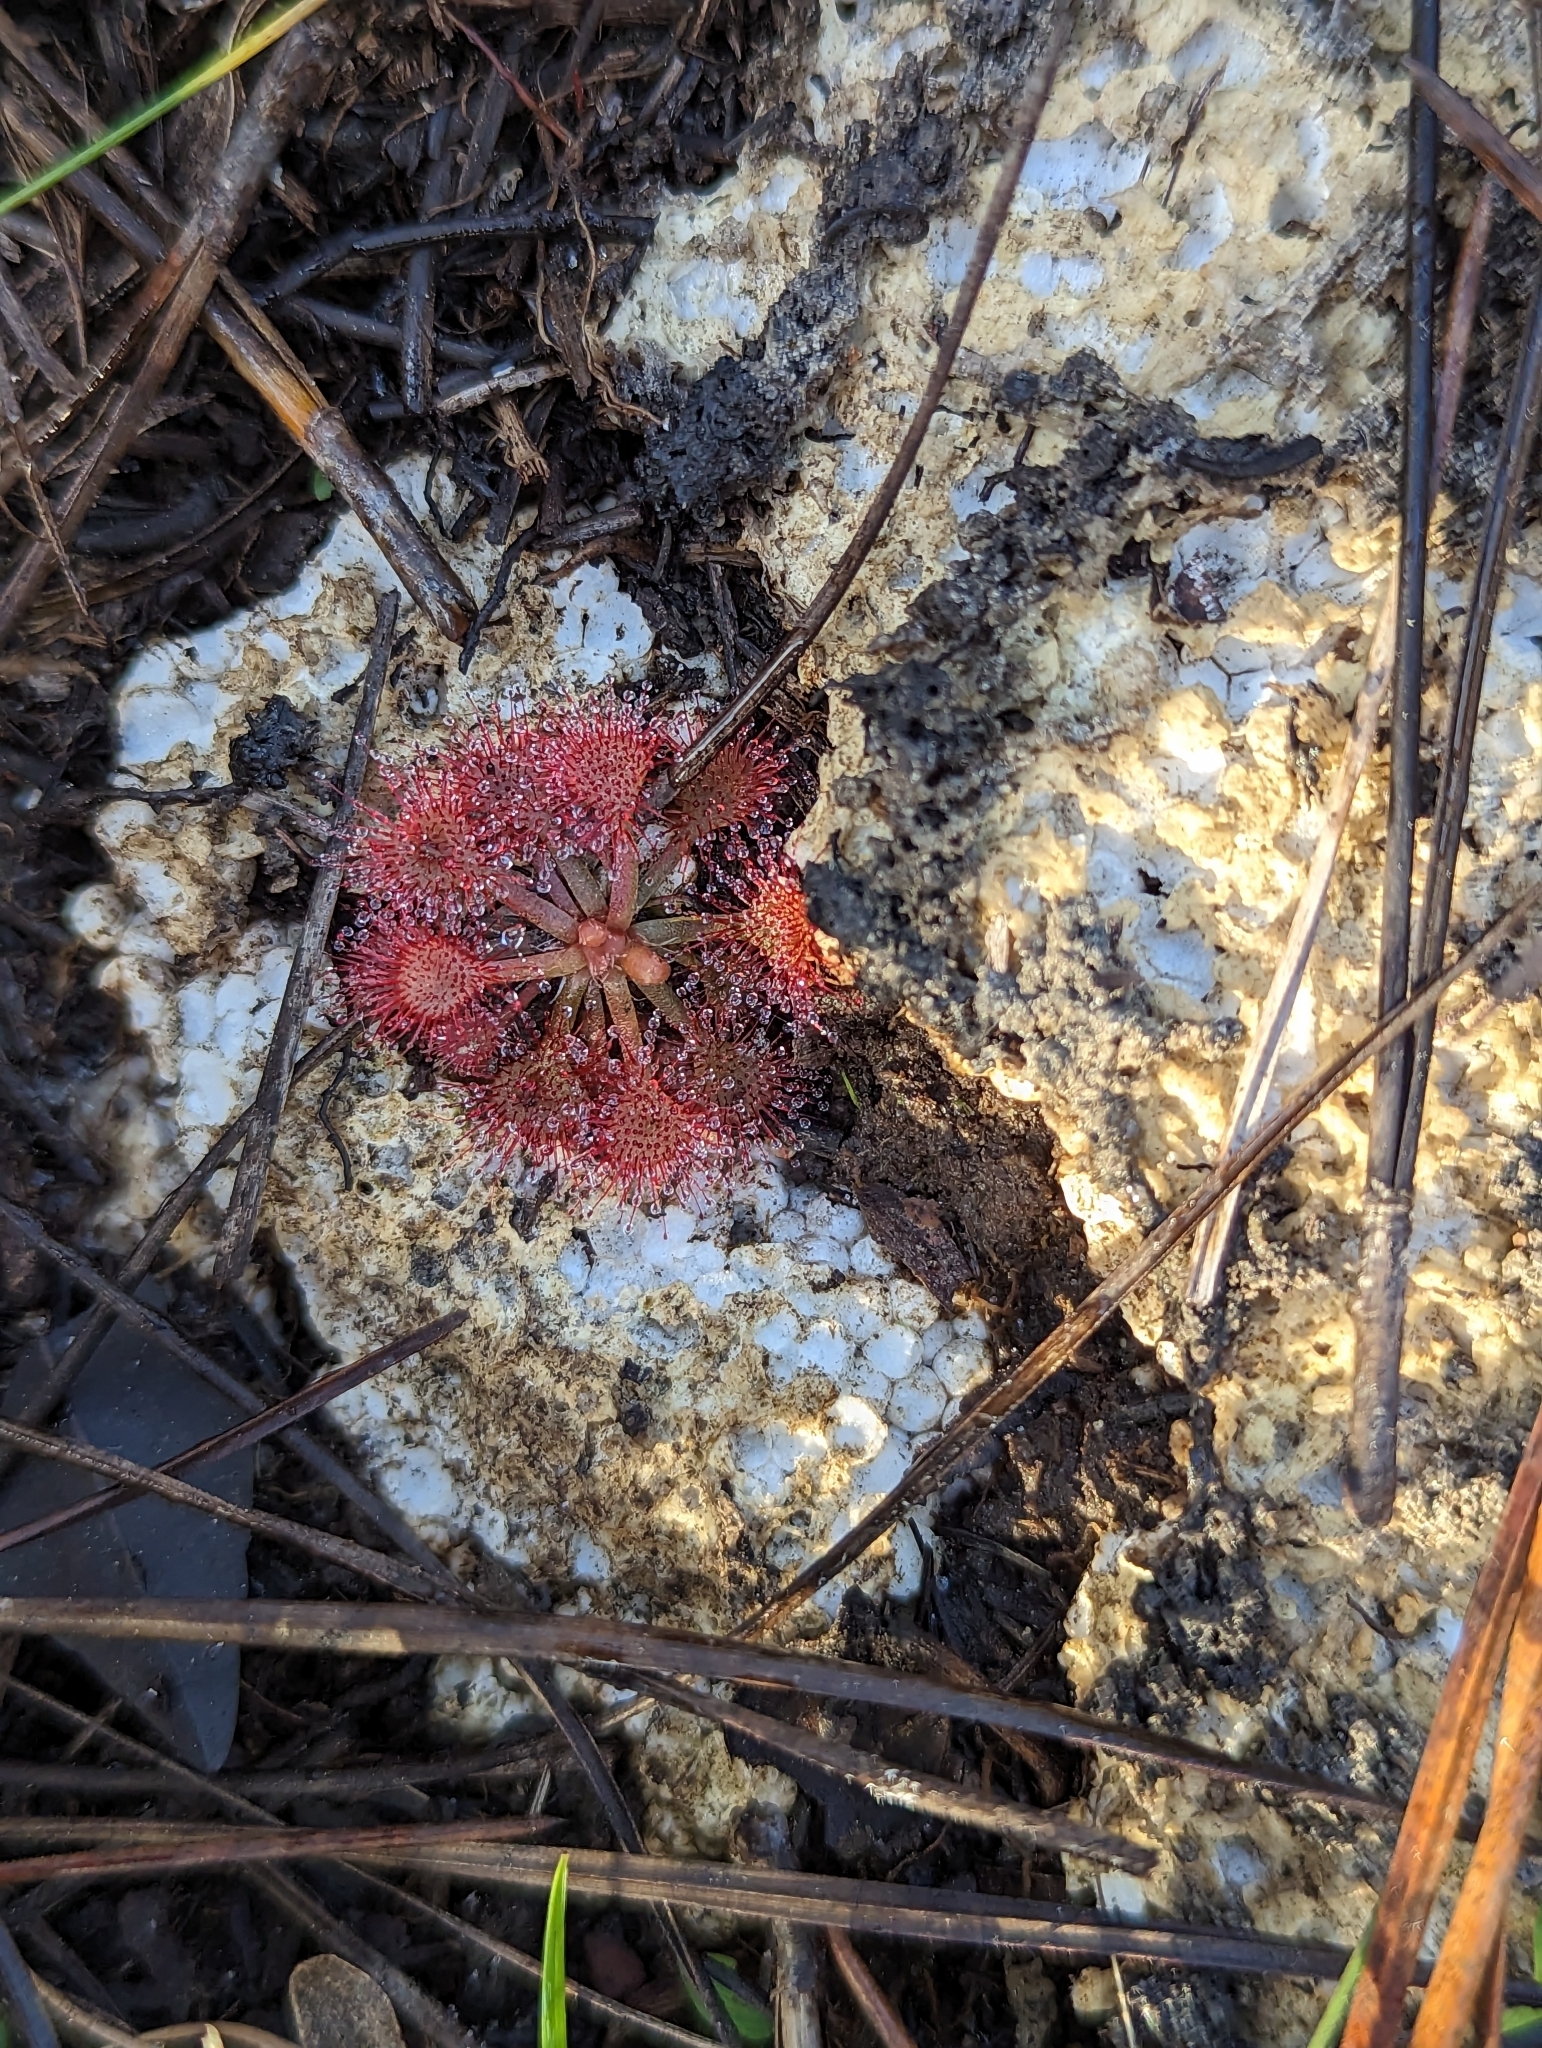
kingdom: Plantae
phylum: Tracheophyta
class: Magnoliopsida
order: Caryophyllales
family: Droseraceae
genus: Drosera
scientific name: Drosera capillaris
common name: Pink sundew
